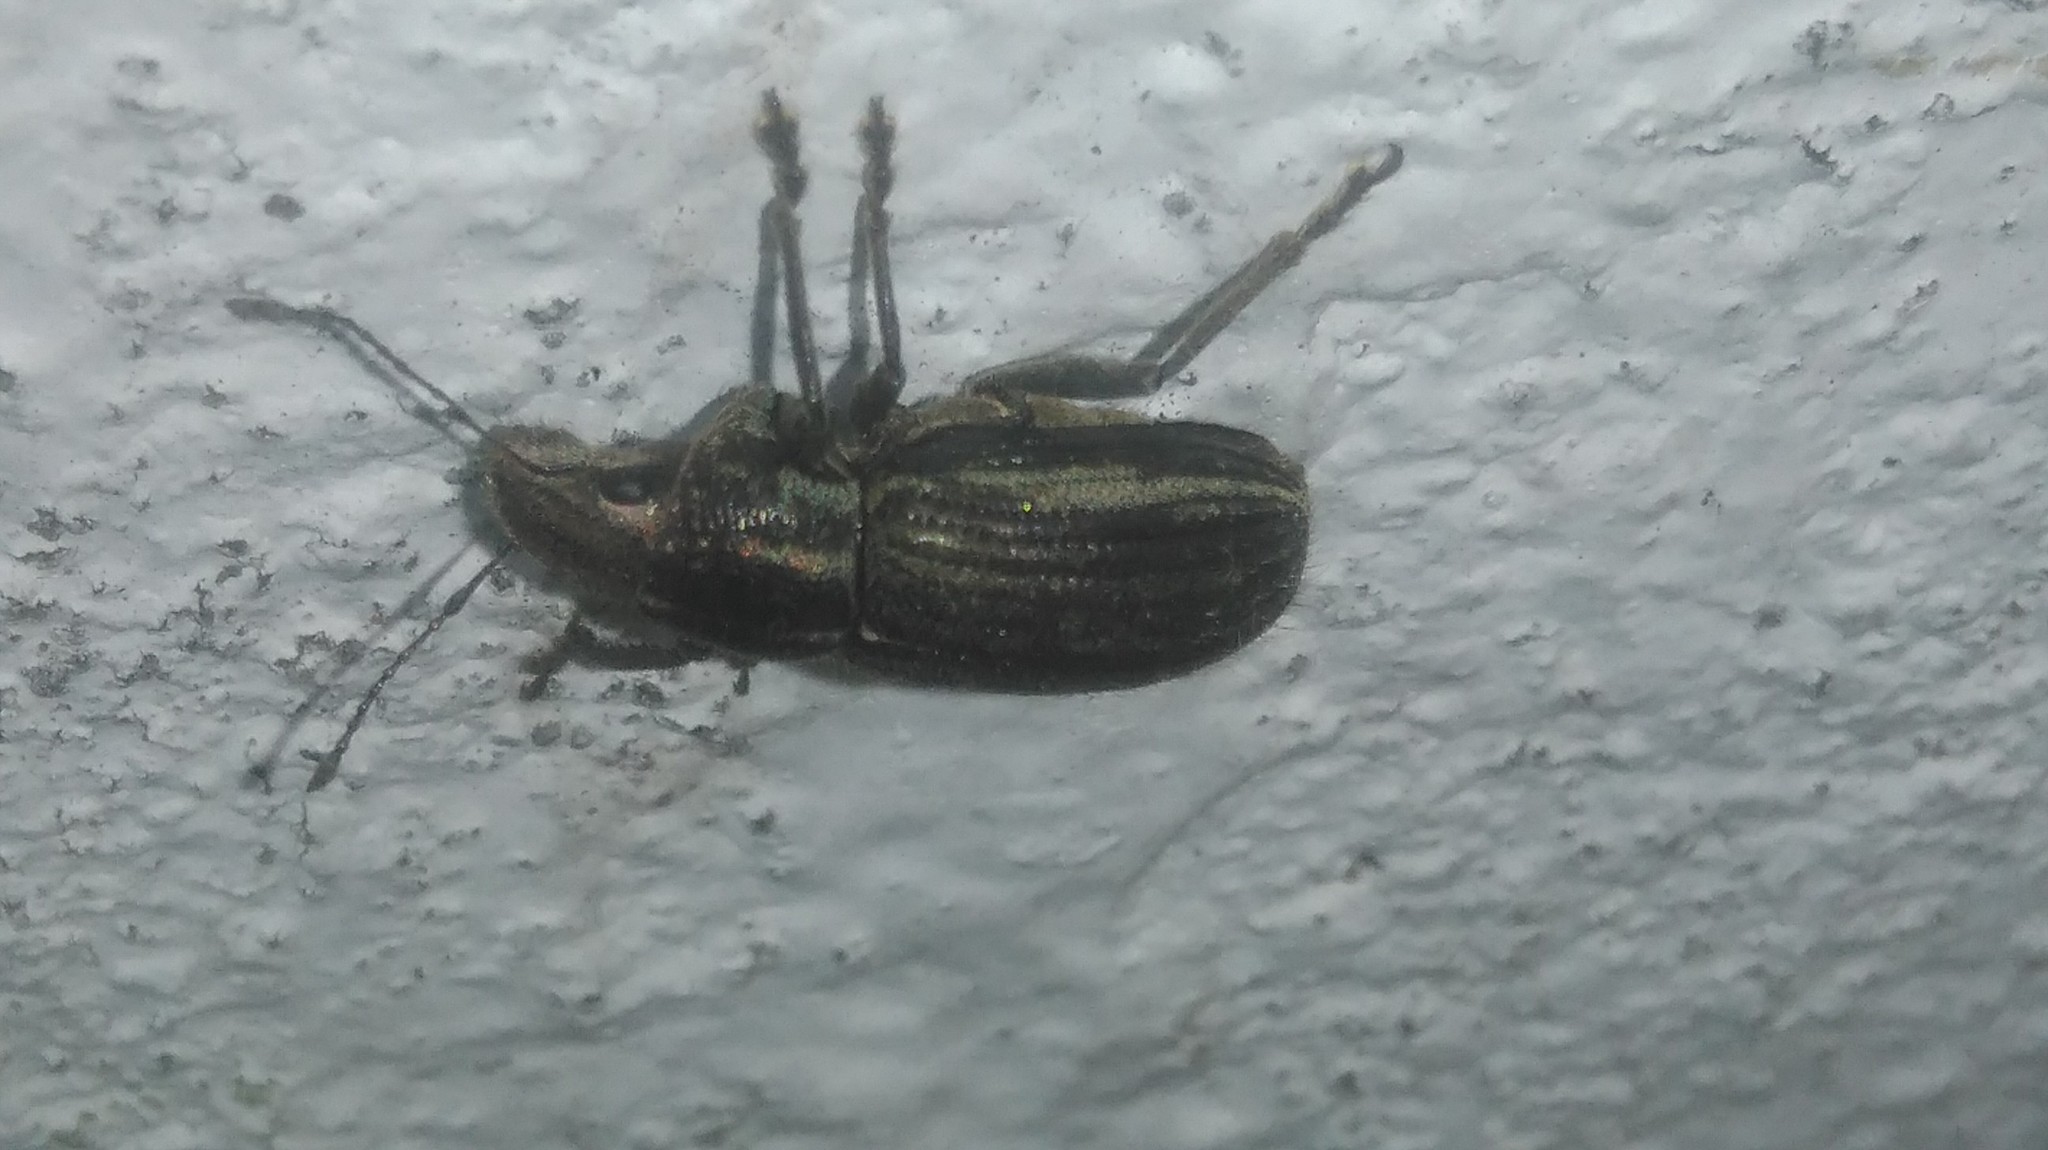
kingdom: Animalia
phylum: Arthropoda
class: Insecta
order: Coleoptera
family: Curculionidae
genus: Naupactus
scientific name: Naupactus leucoloma
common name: Whitefringed beetle
